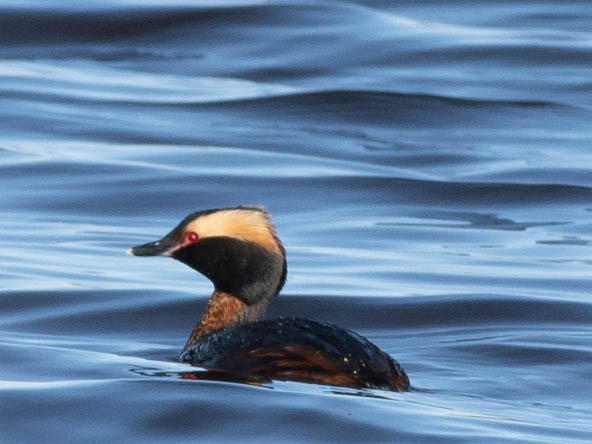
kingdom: Animalia
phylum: Chordata
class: Aves
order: Podicipediformes
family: Podicipedidae
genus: Podiceps
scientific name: Podiceps auritus
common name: Horned grebe
